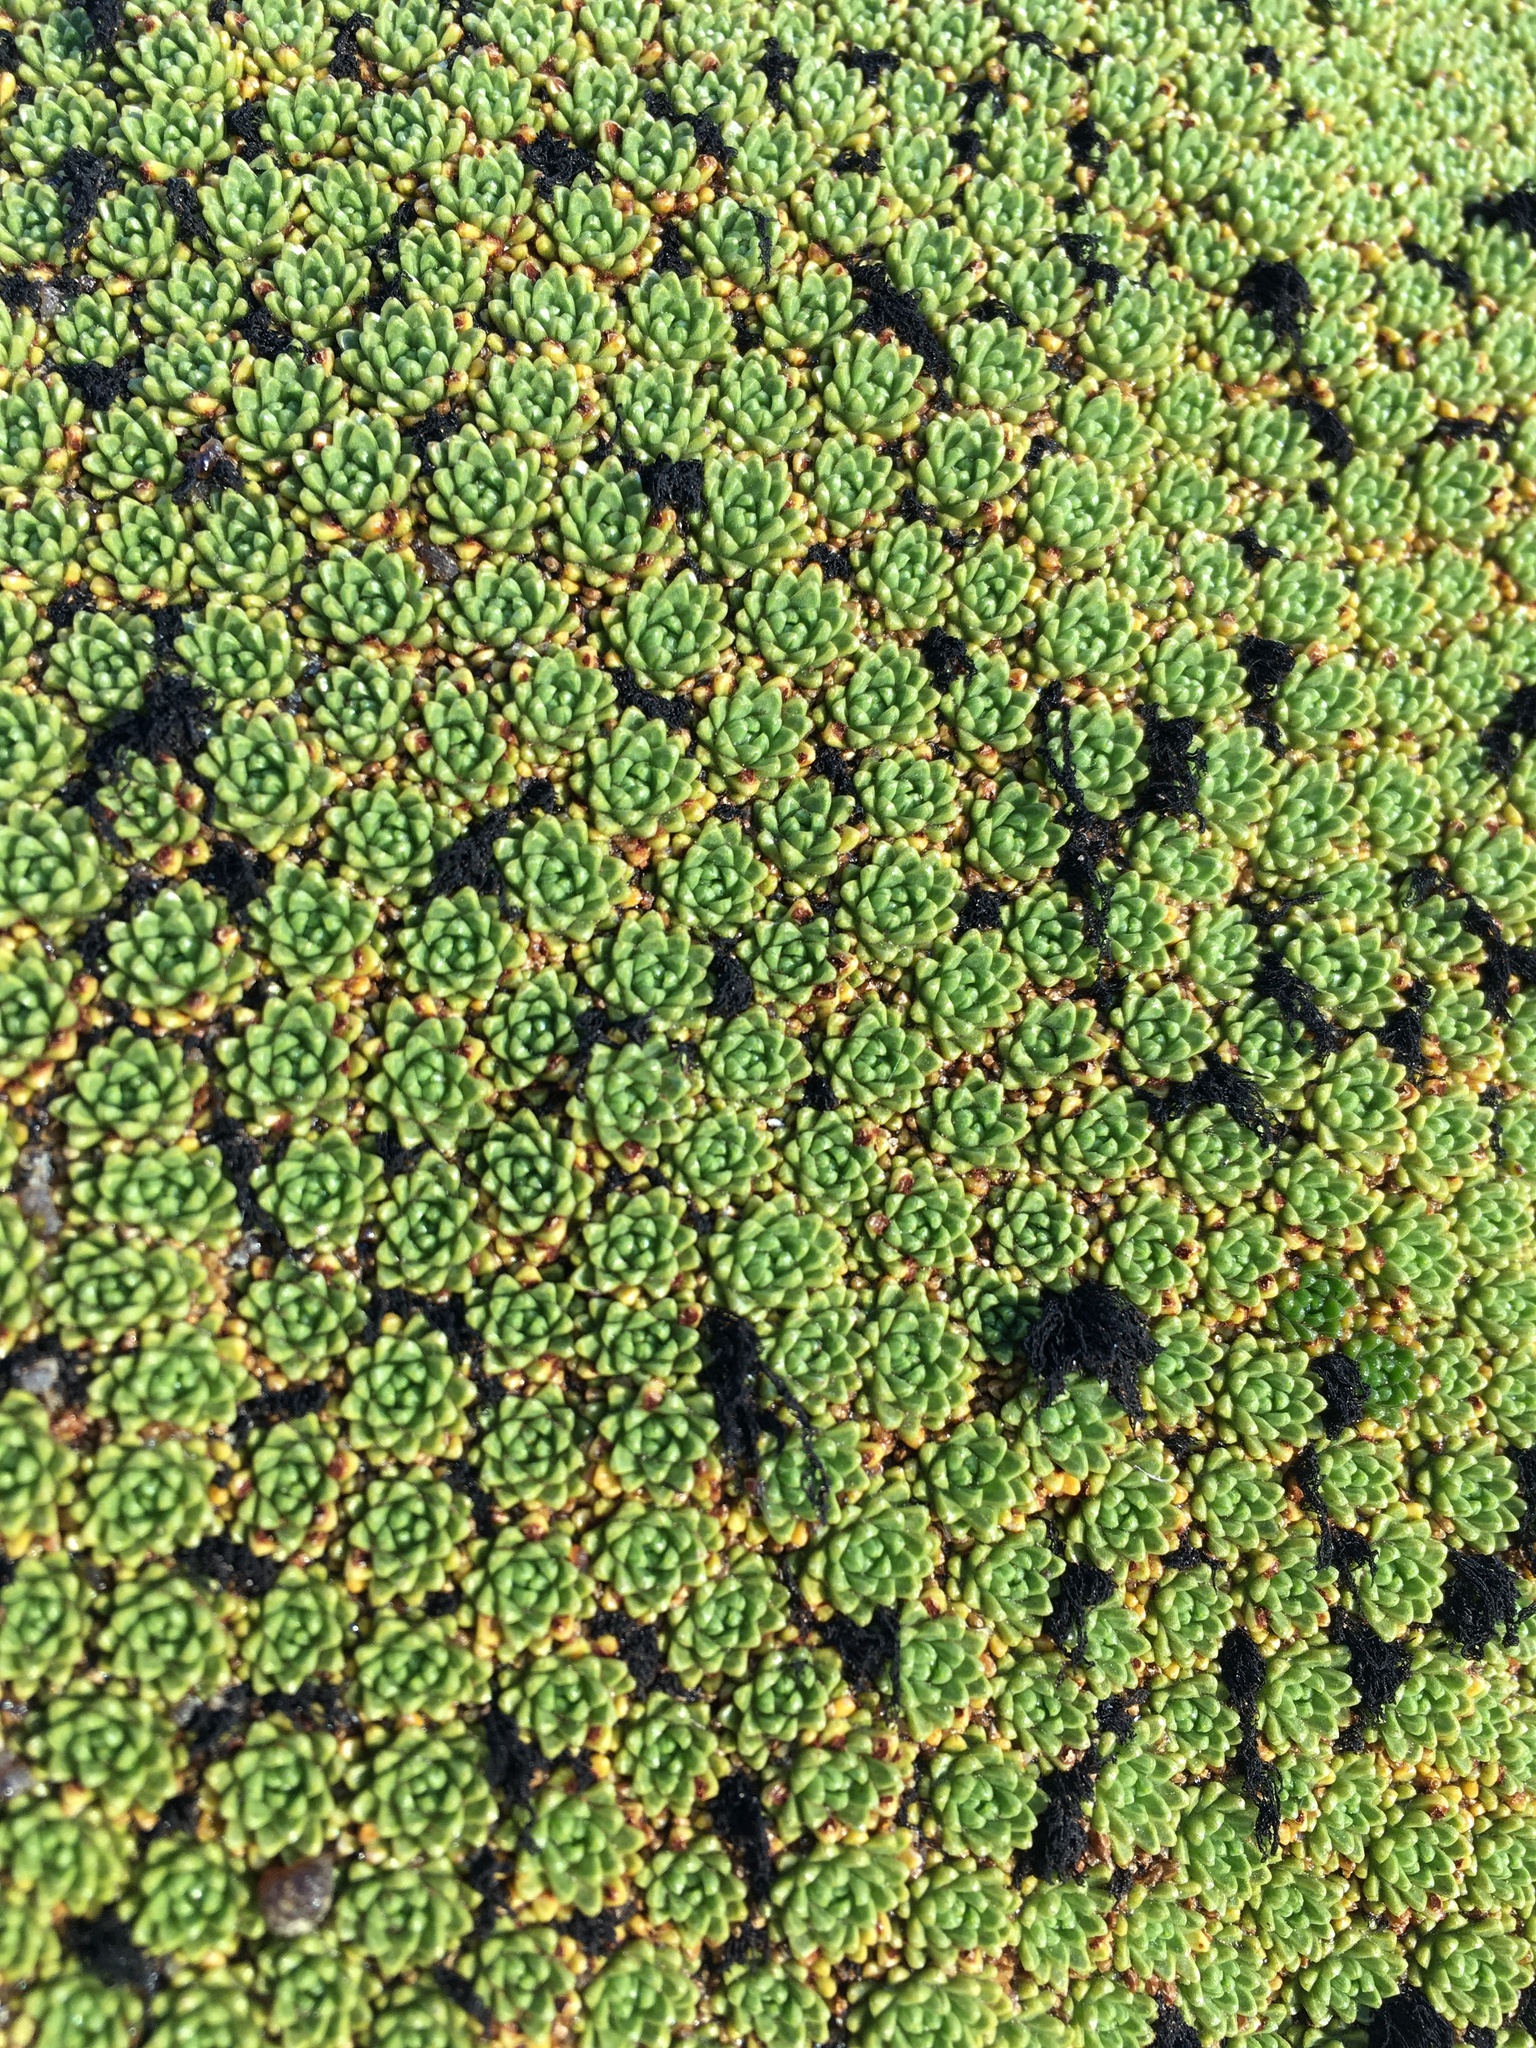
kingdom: Plantae
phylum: Tracheophyta
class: Magnoliopsida
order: Apiales
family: Apiaceae
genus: Azorella
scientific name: Azorella compacta
